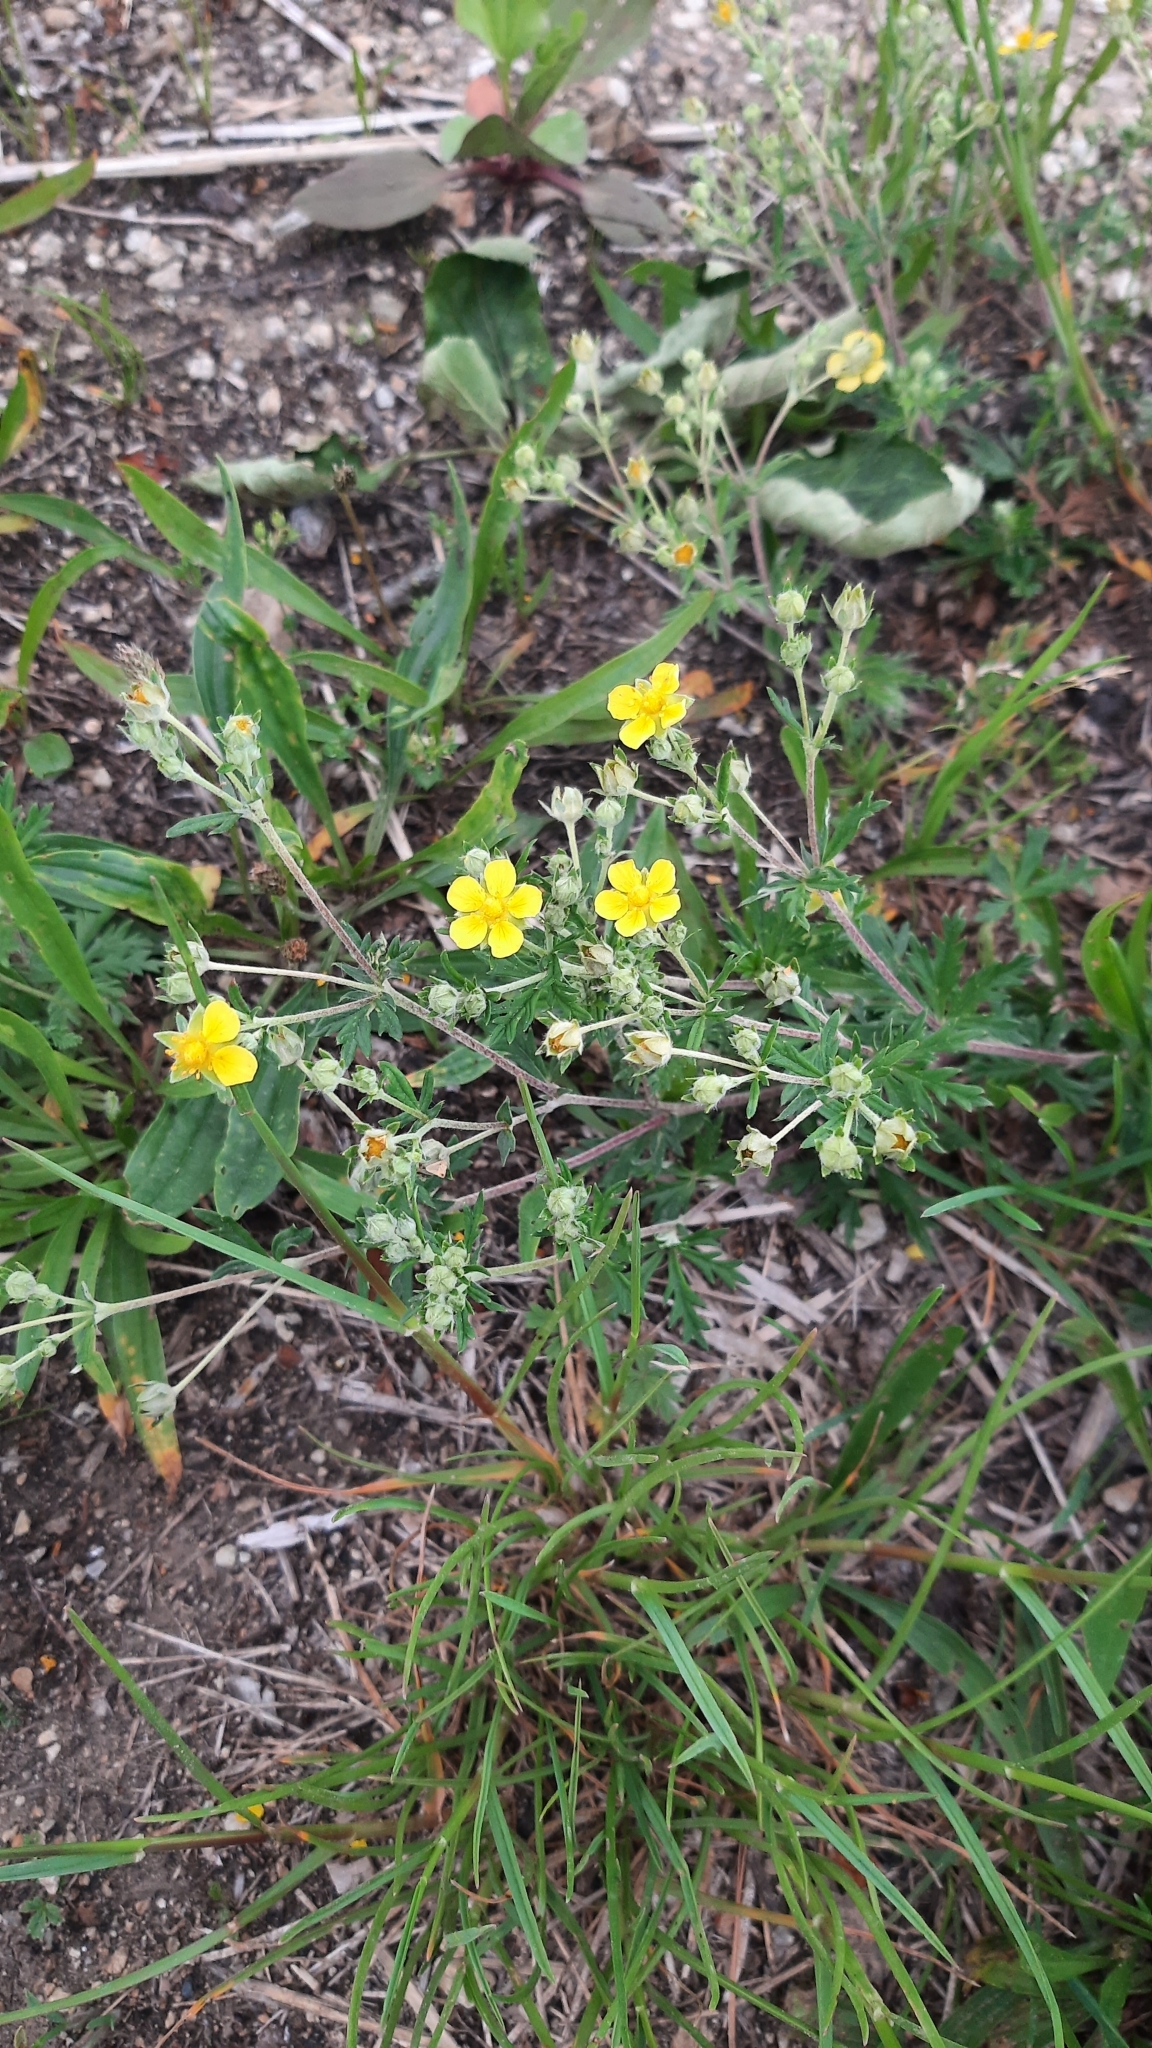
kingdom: Plantae
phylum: Tracheophyta
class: Magnoliopsida
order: Rosales
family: Rosaceae
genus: Potentilla
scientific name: Potentilla argentea
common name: Hoary cinquefoil
